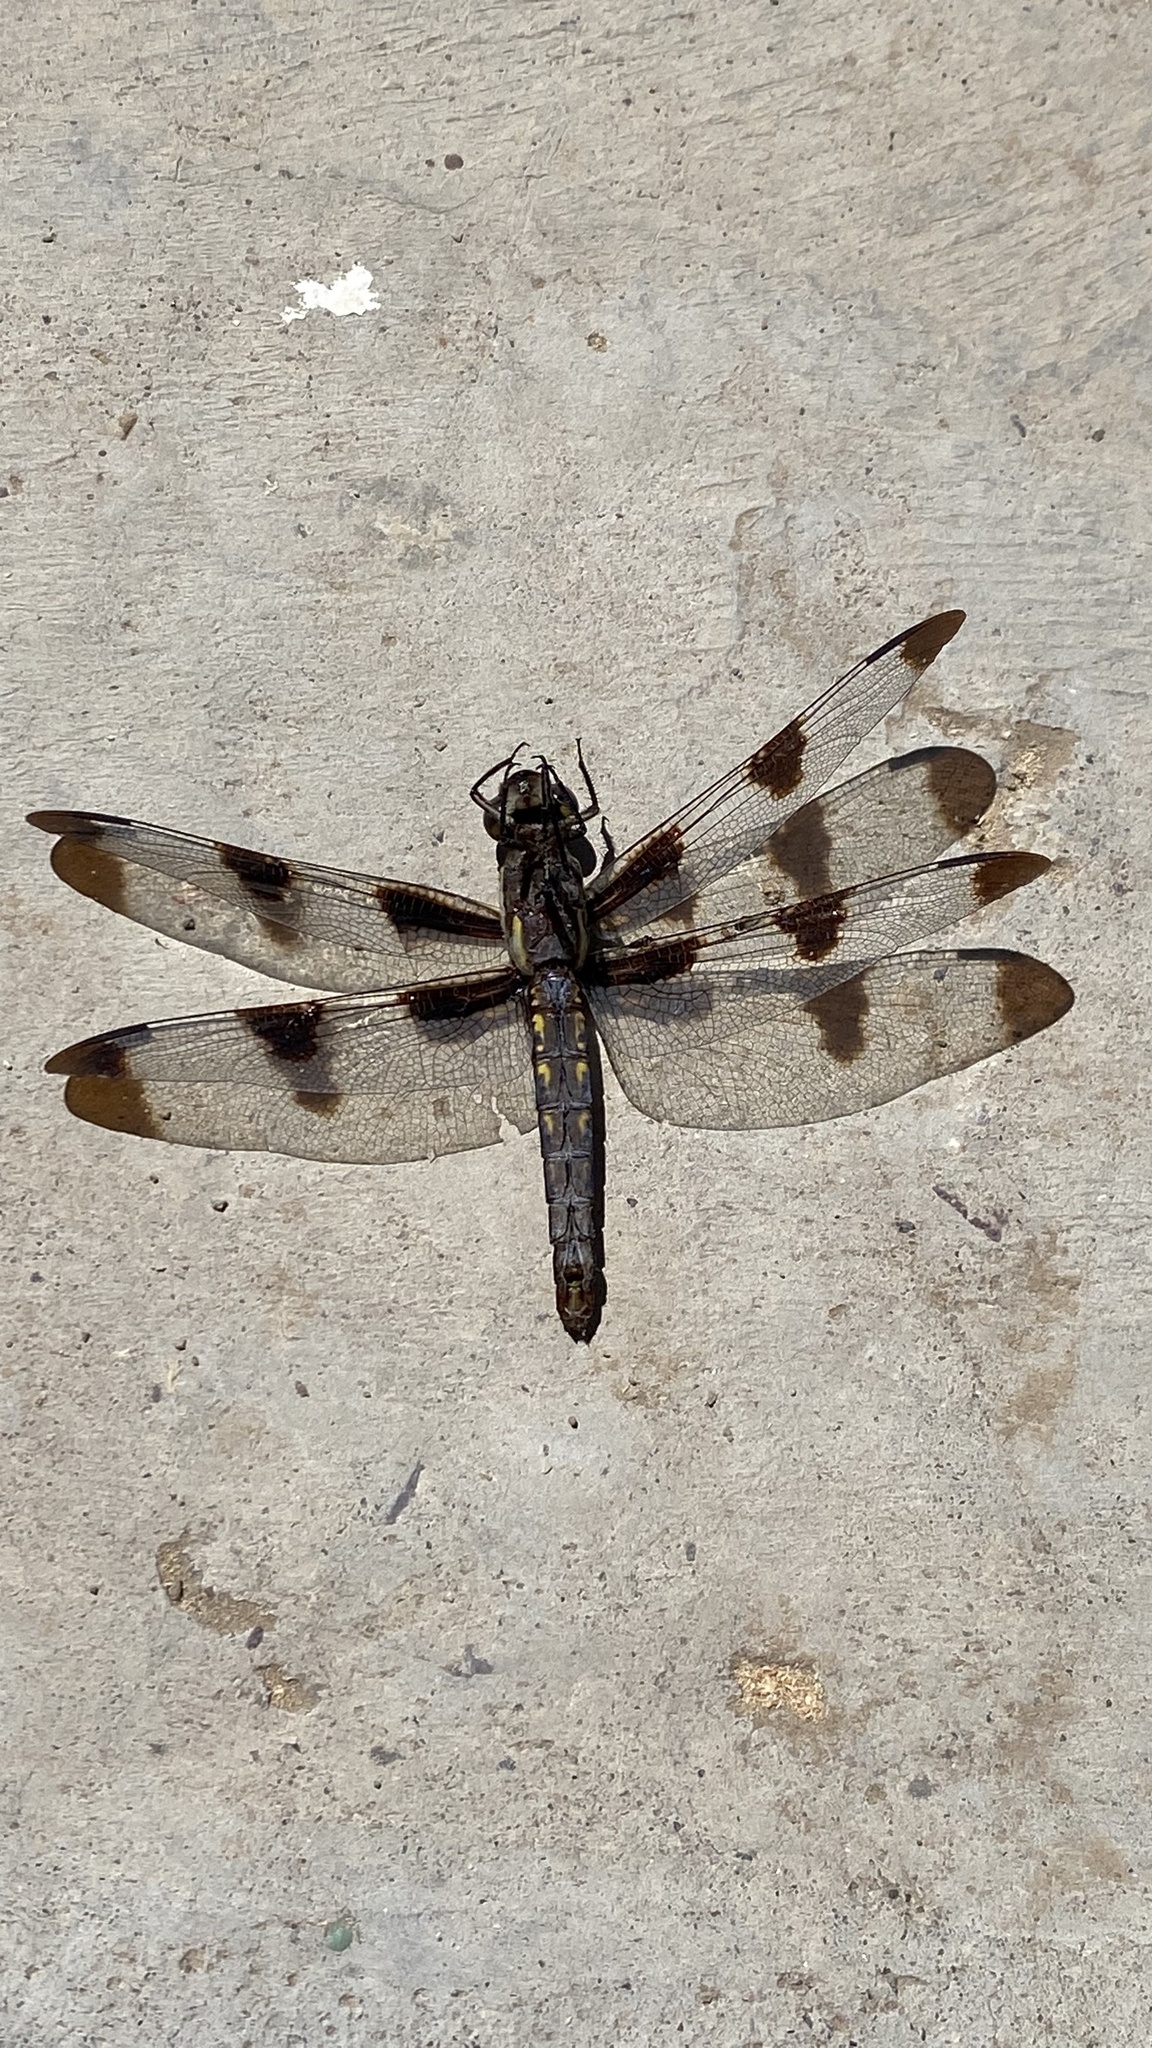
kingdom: Animalia
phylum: Arthropoda
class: Insecta
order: Odonata
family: Libellulidae
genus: Libellula
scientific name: Libellula pulchella
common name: Twelve-spotted skimmer
